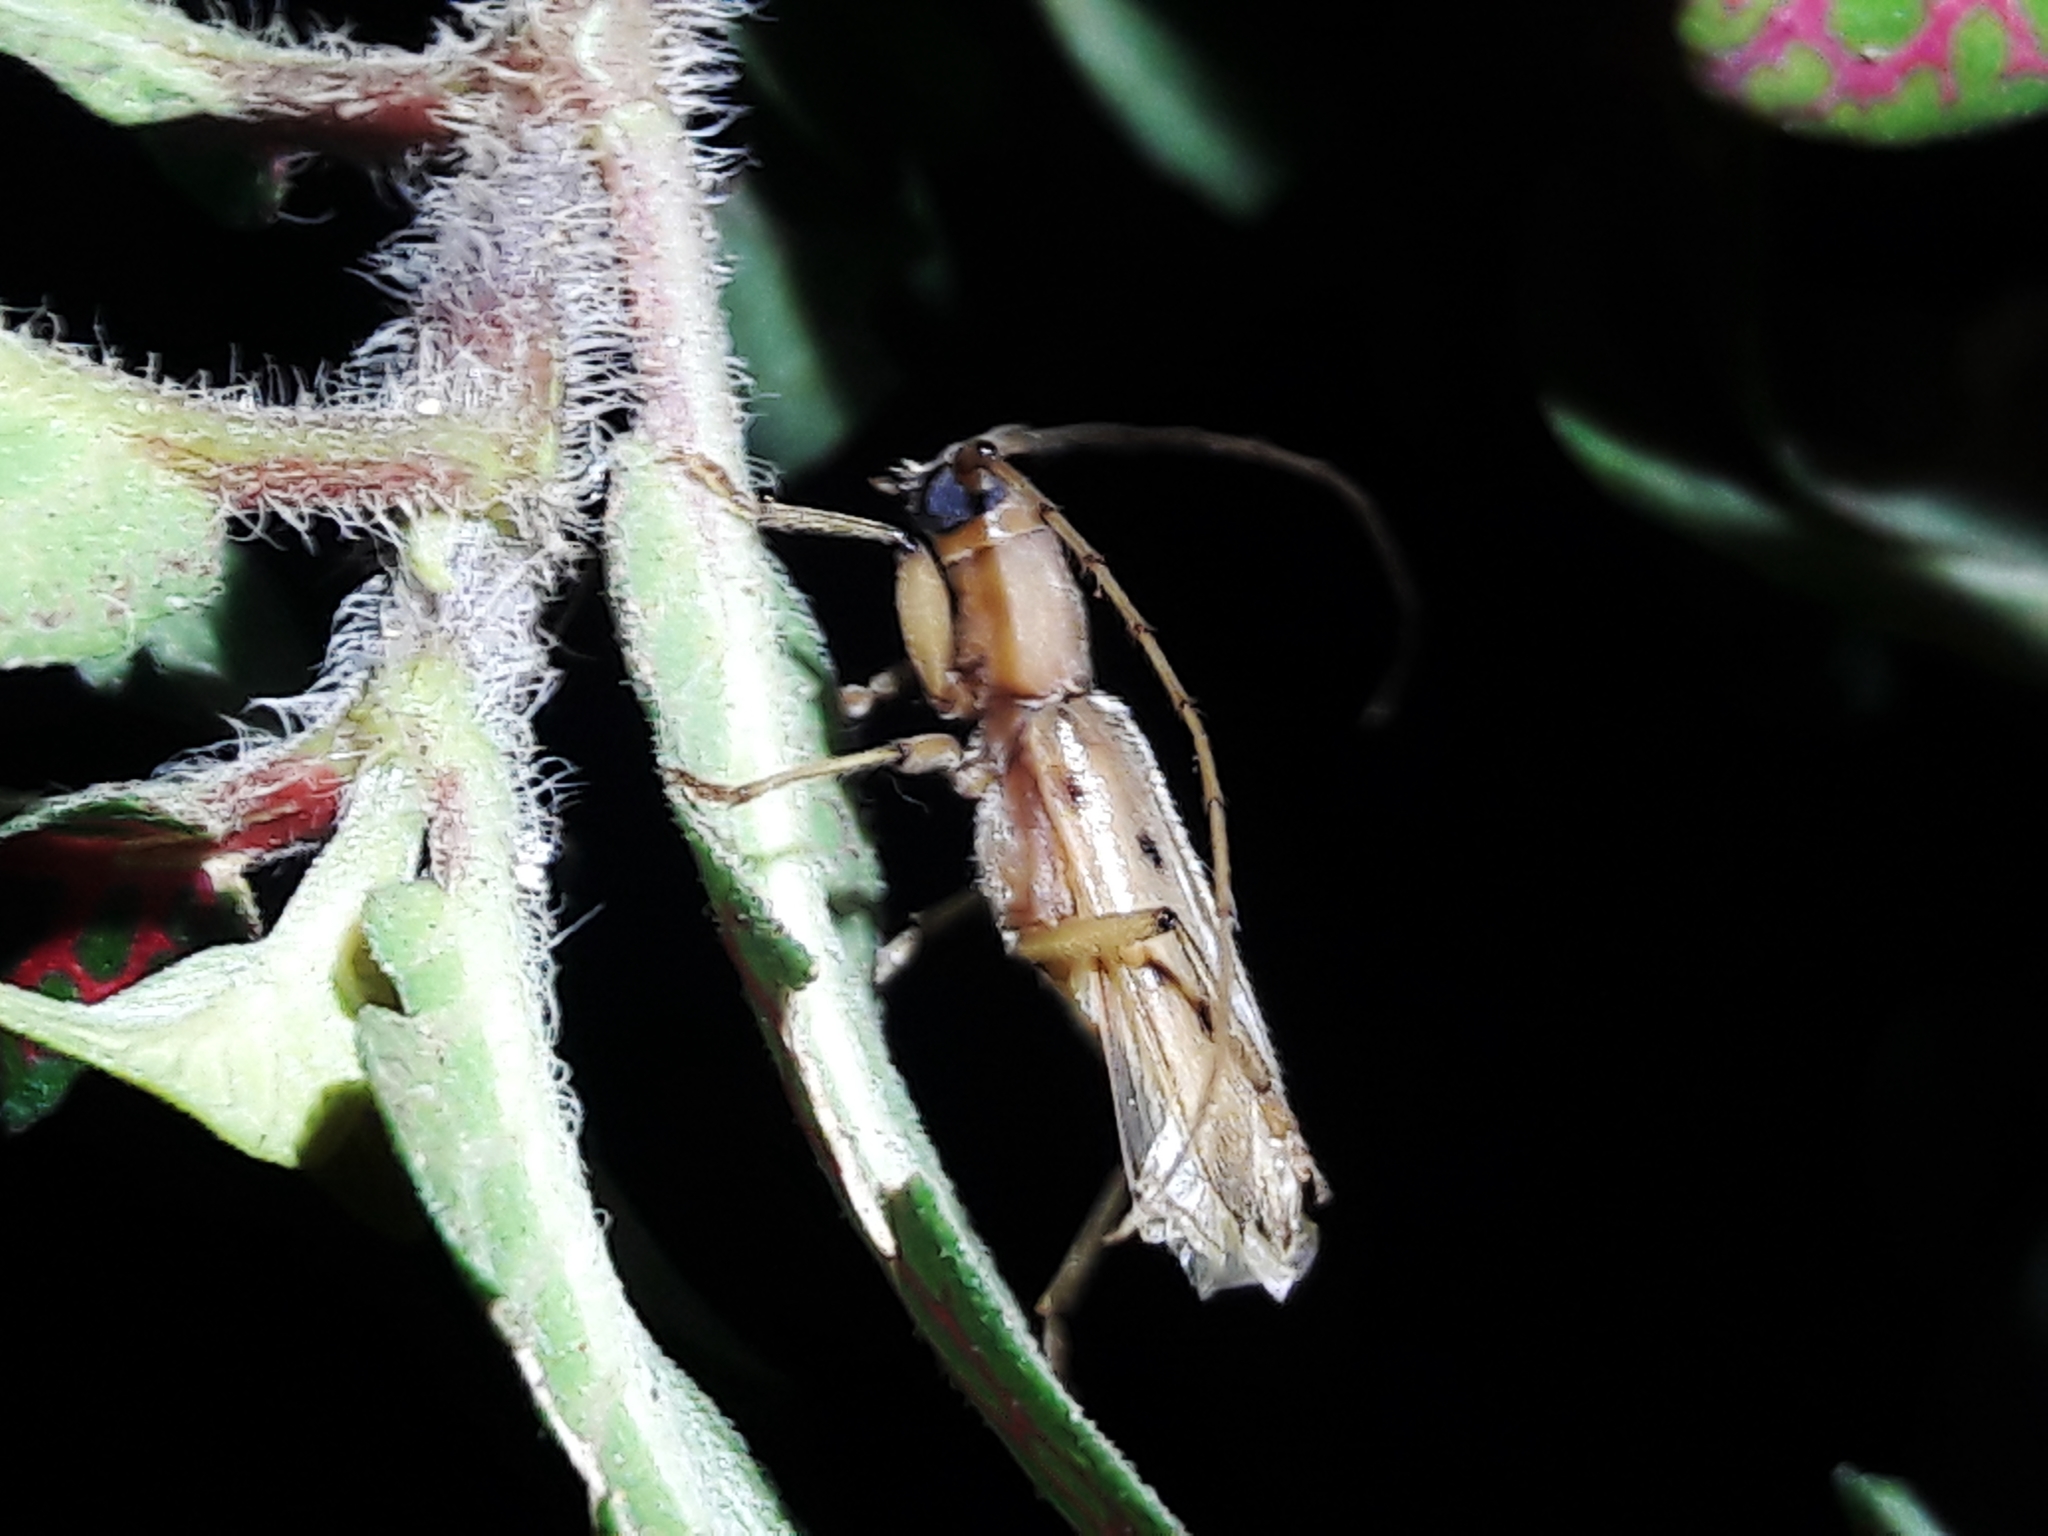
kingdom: Animalia
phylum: Arthropoda
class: Insecta
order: Coleoptera
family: Cerambycidae
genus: Achryson
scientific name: Achryson surinamum
